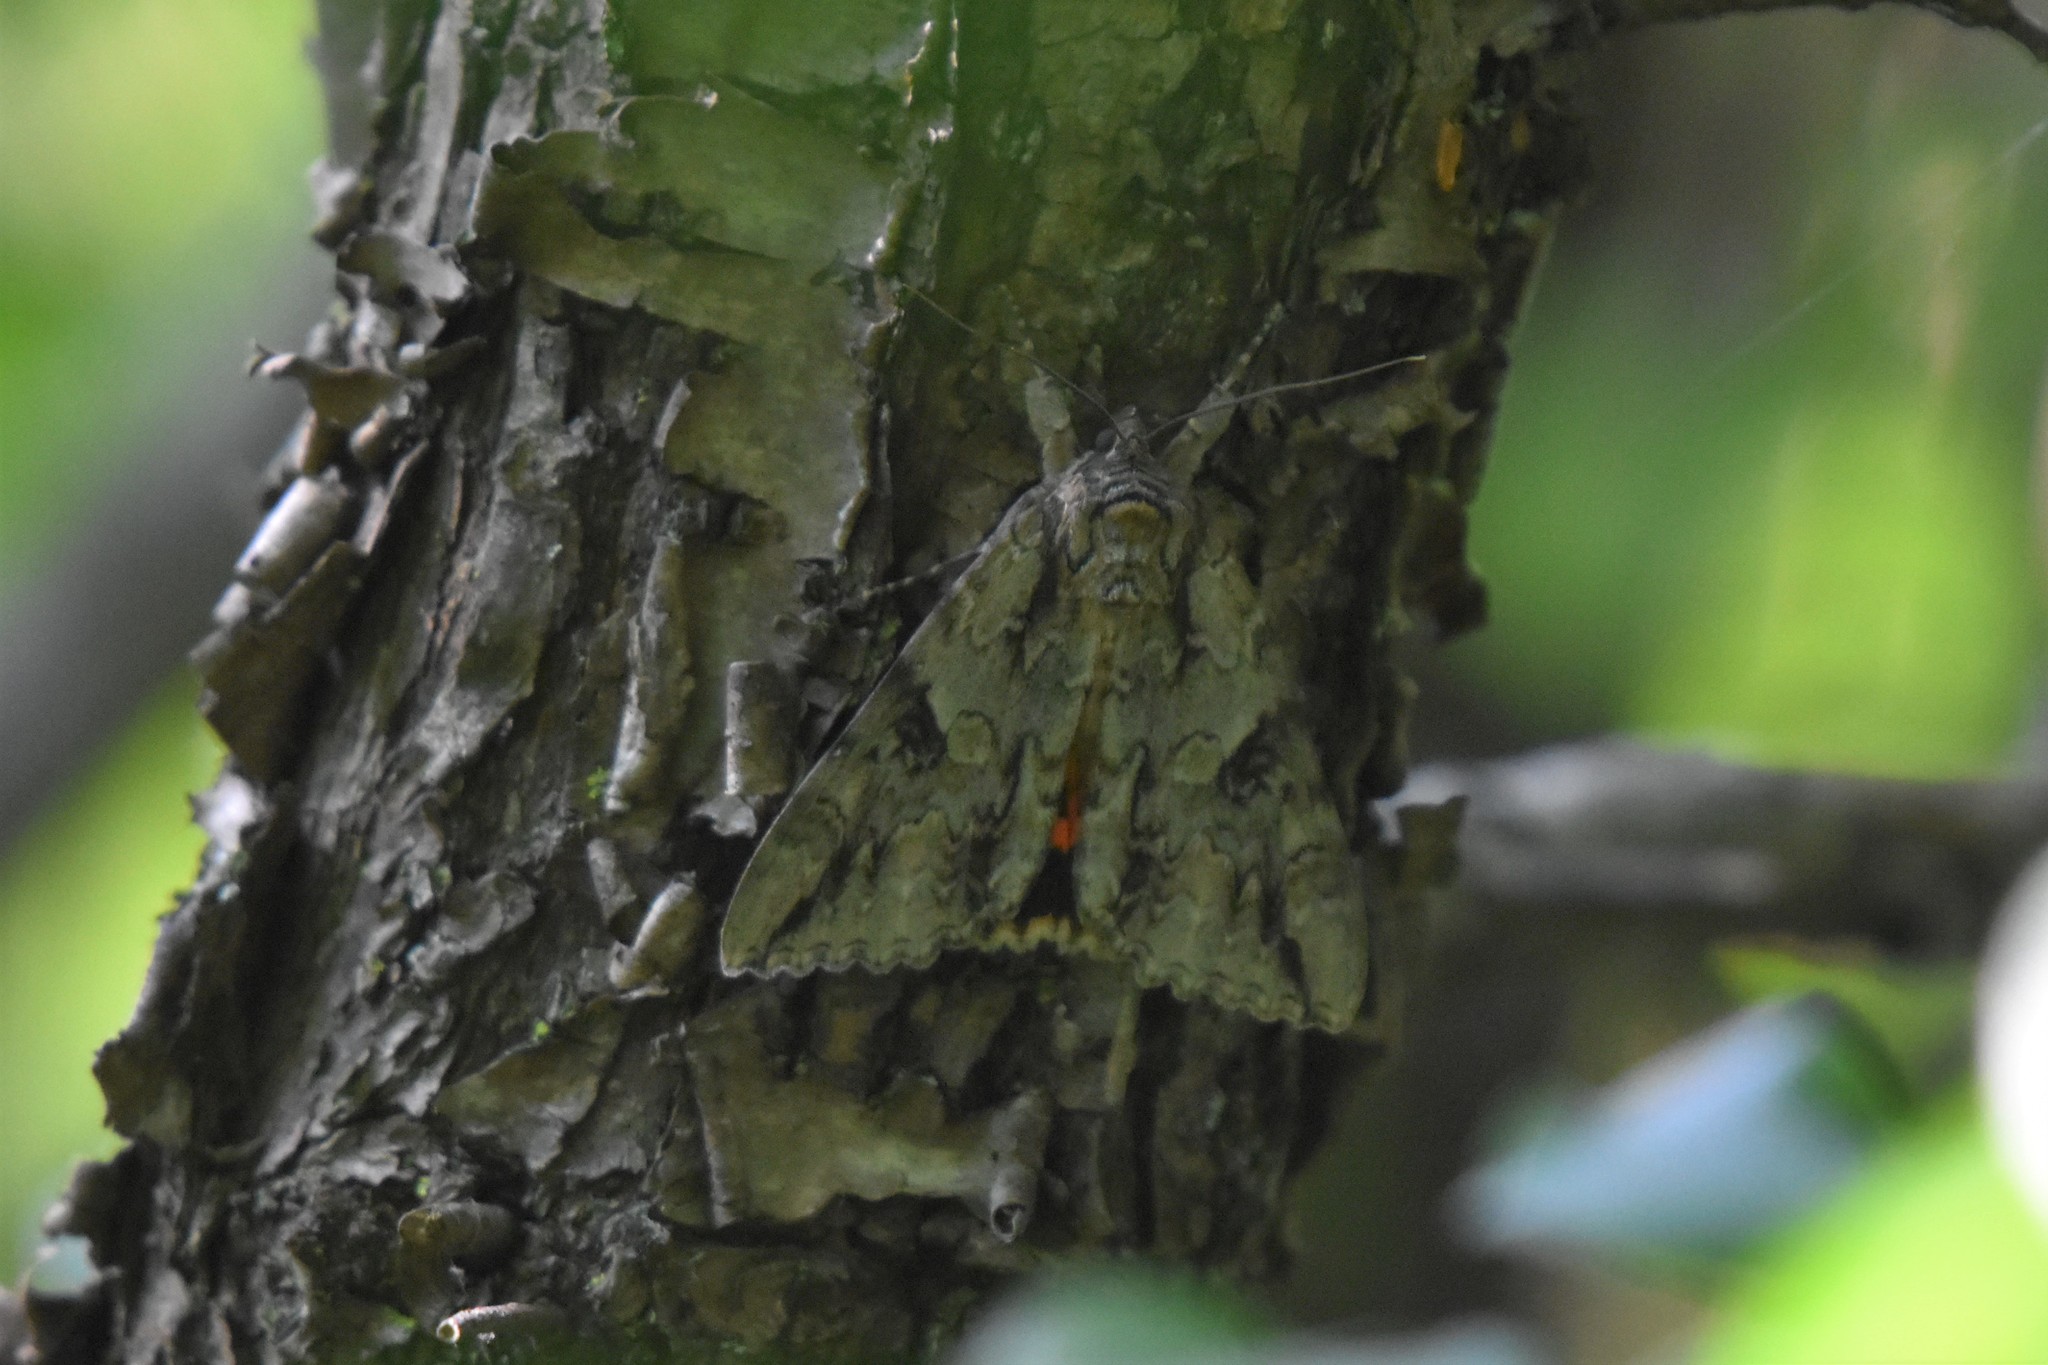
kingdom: Animalia
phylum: Arthropoda
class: Insecta
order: Lepidoptera
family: Erebidae
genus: Catocala
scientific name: Catocala parta
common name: Mother underwing
